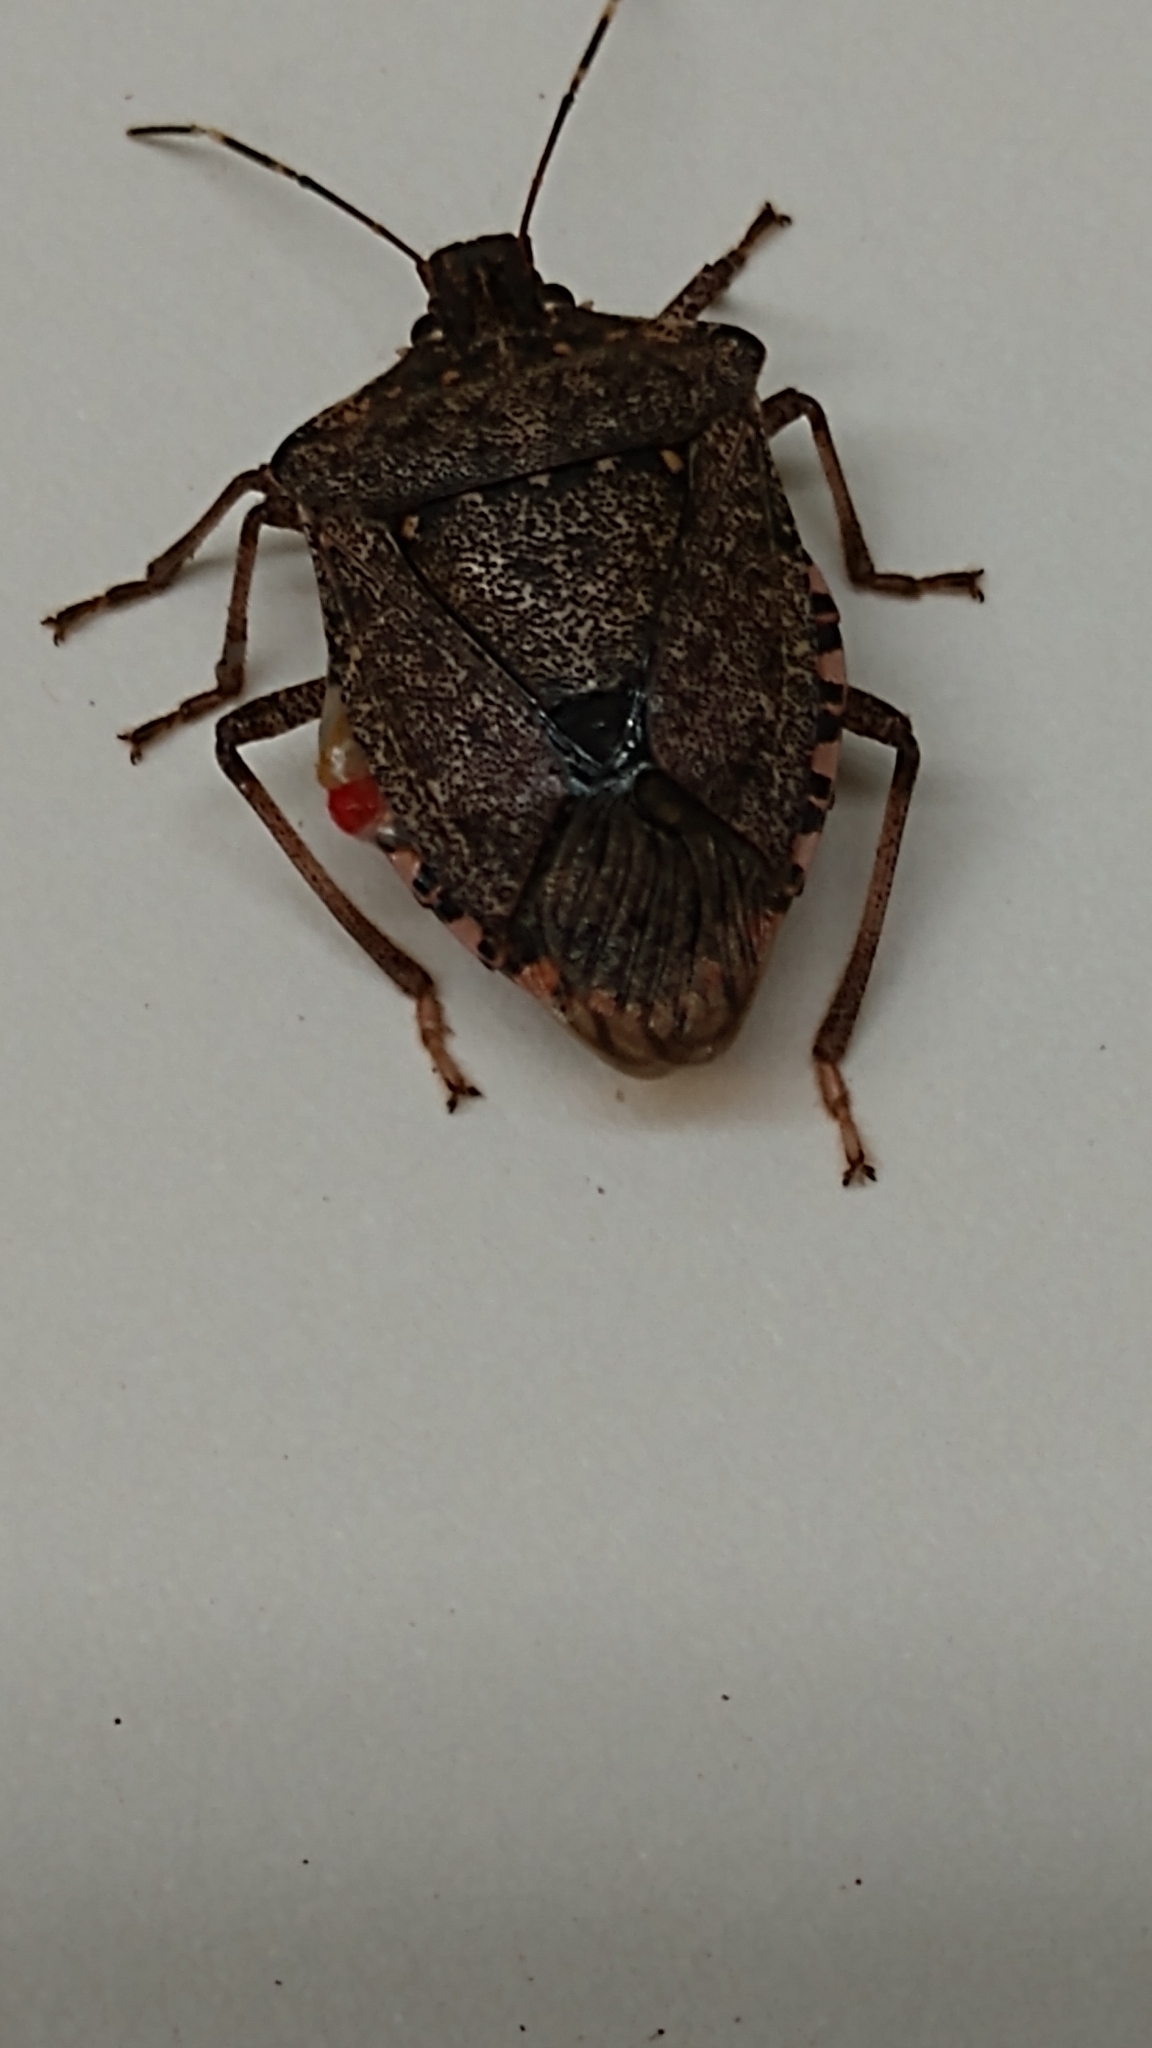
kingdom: Animalia
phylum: Arthropoda
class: Insecta
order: Hemiptera
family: Pentatomidae
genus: Halyomorpha
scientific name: Halyomorpha halys
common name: Brown marmorated stink bug
